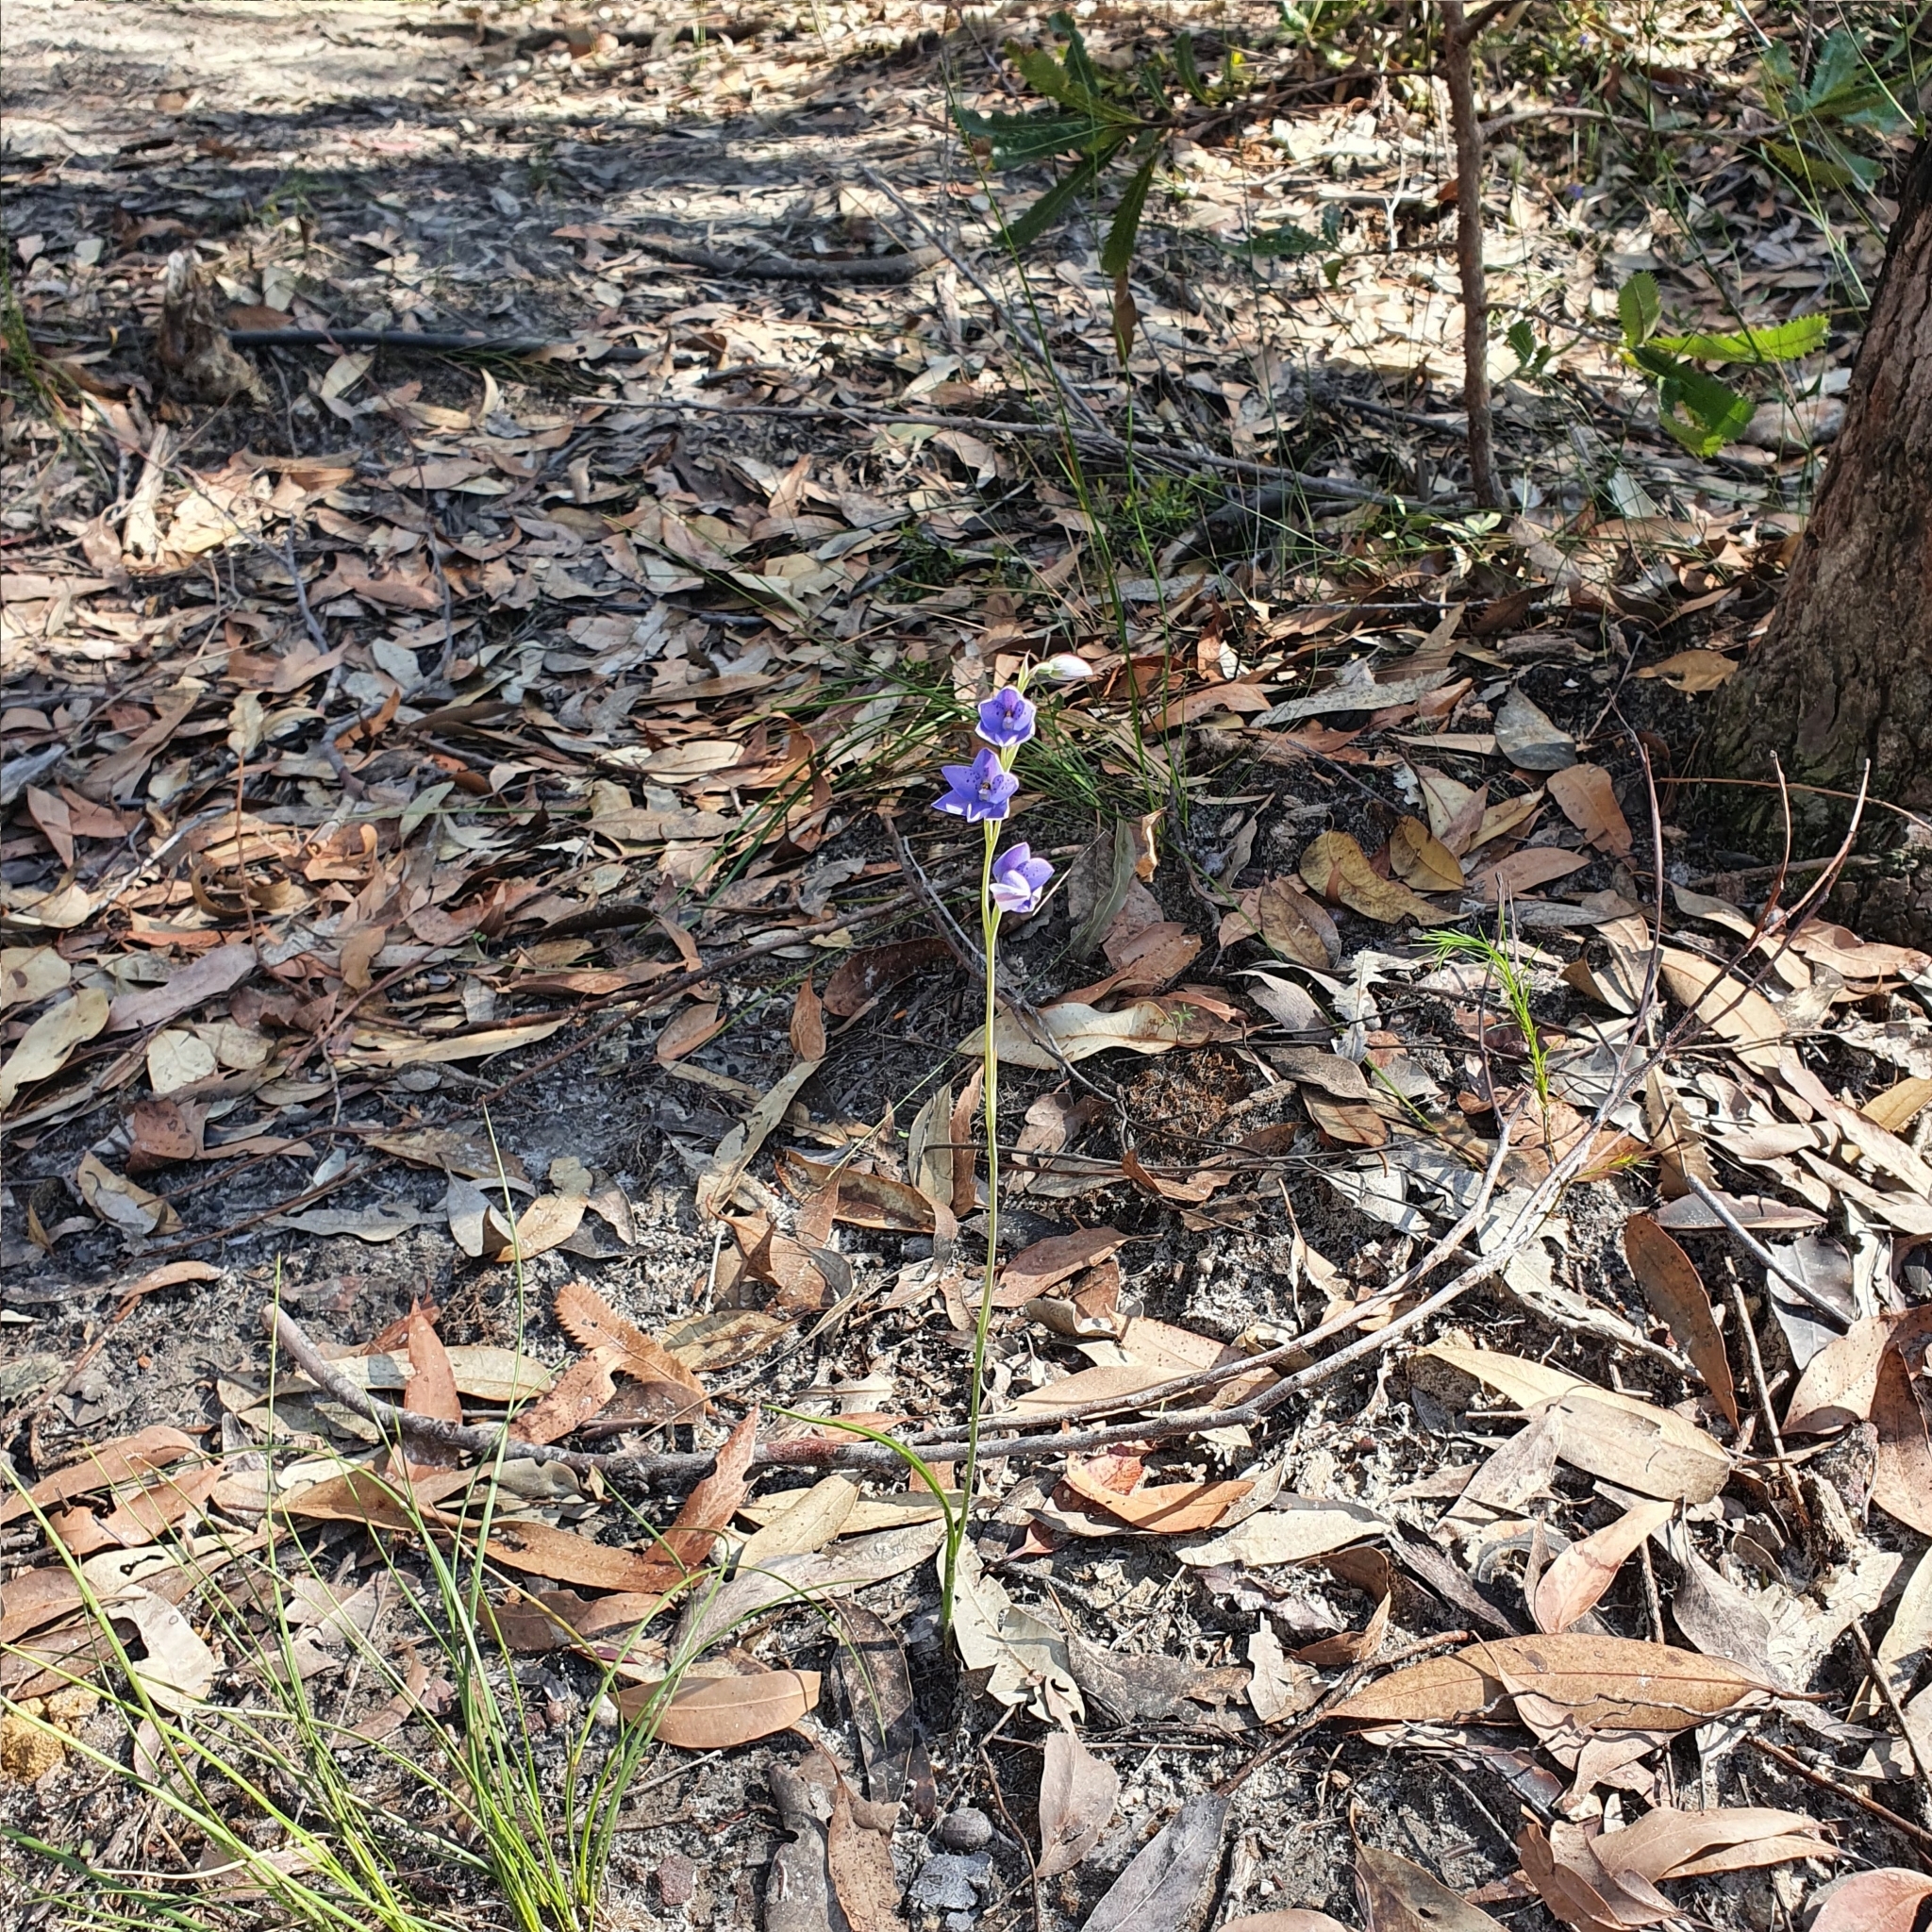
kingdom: Plantae
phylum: Tracheophyta
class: Liliopsida
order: Asparagales
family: Orchidaceae
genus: Thelymitra
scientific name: Thelymitra ixioides
